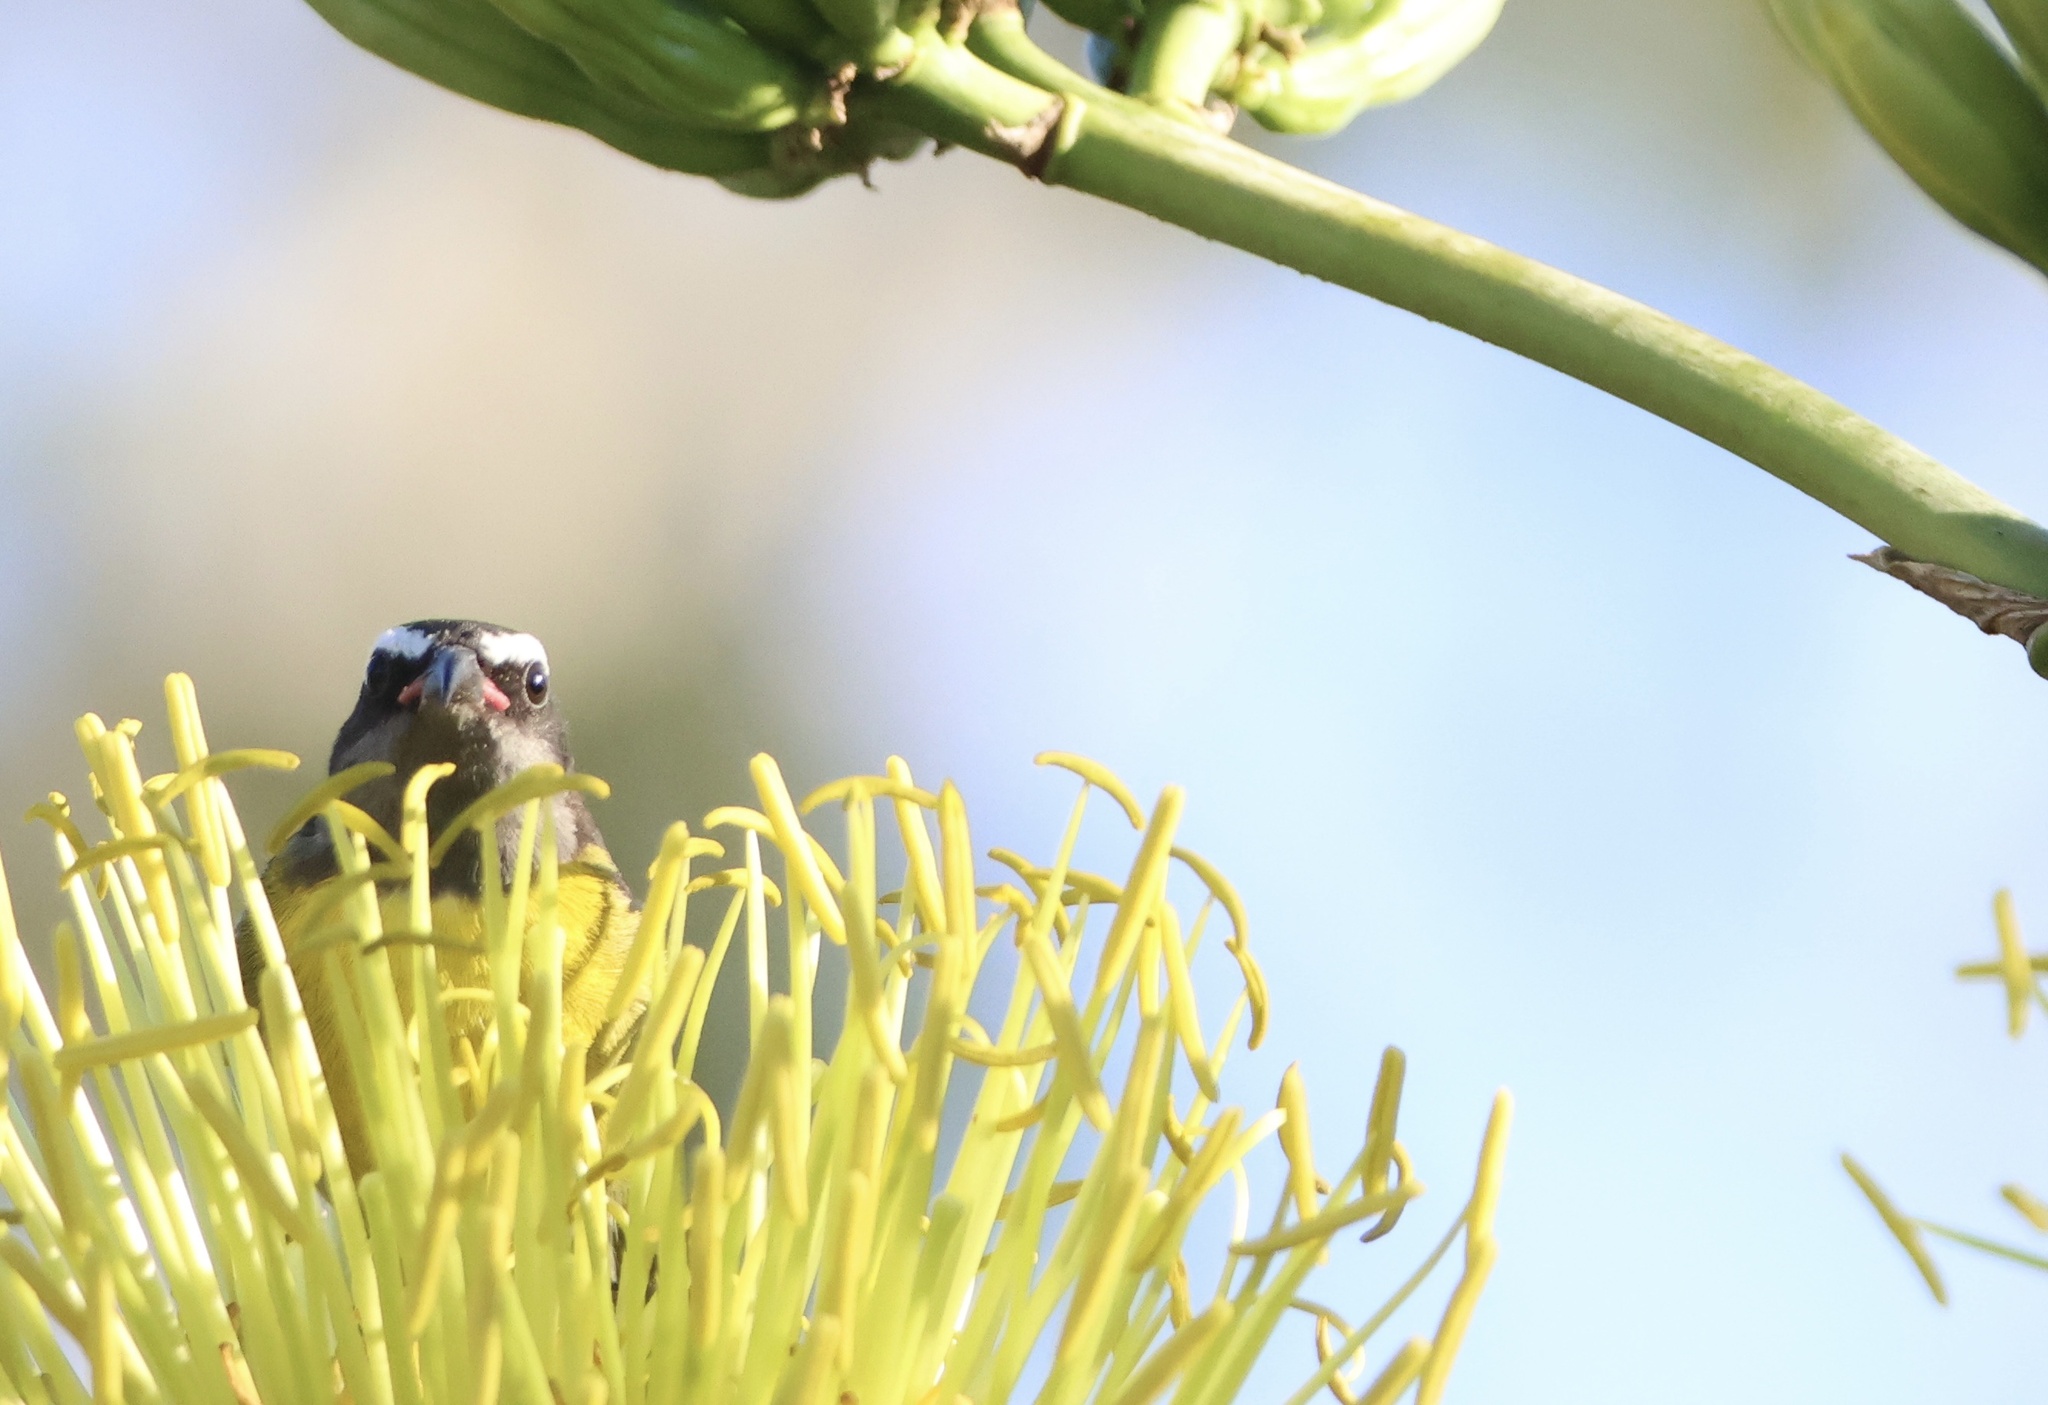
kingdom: Animalia
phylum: Chordata
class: Aves
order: Passeriformes
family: Thraupidae
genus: Coereba
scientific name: Coereba flaveola
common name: Bananaquit
